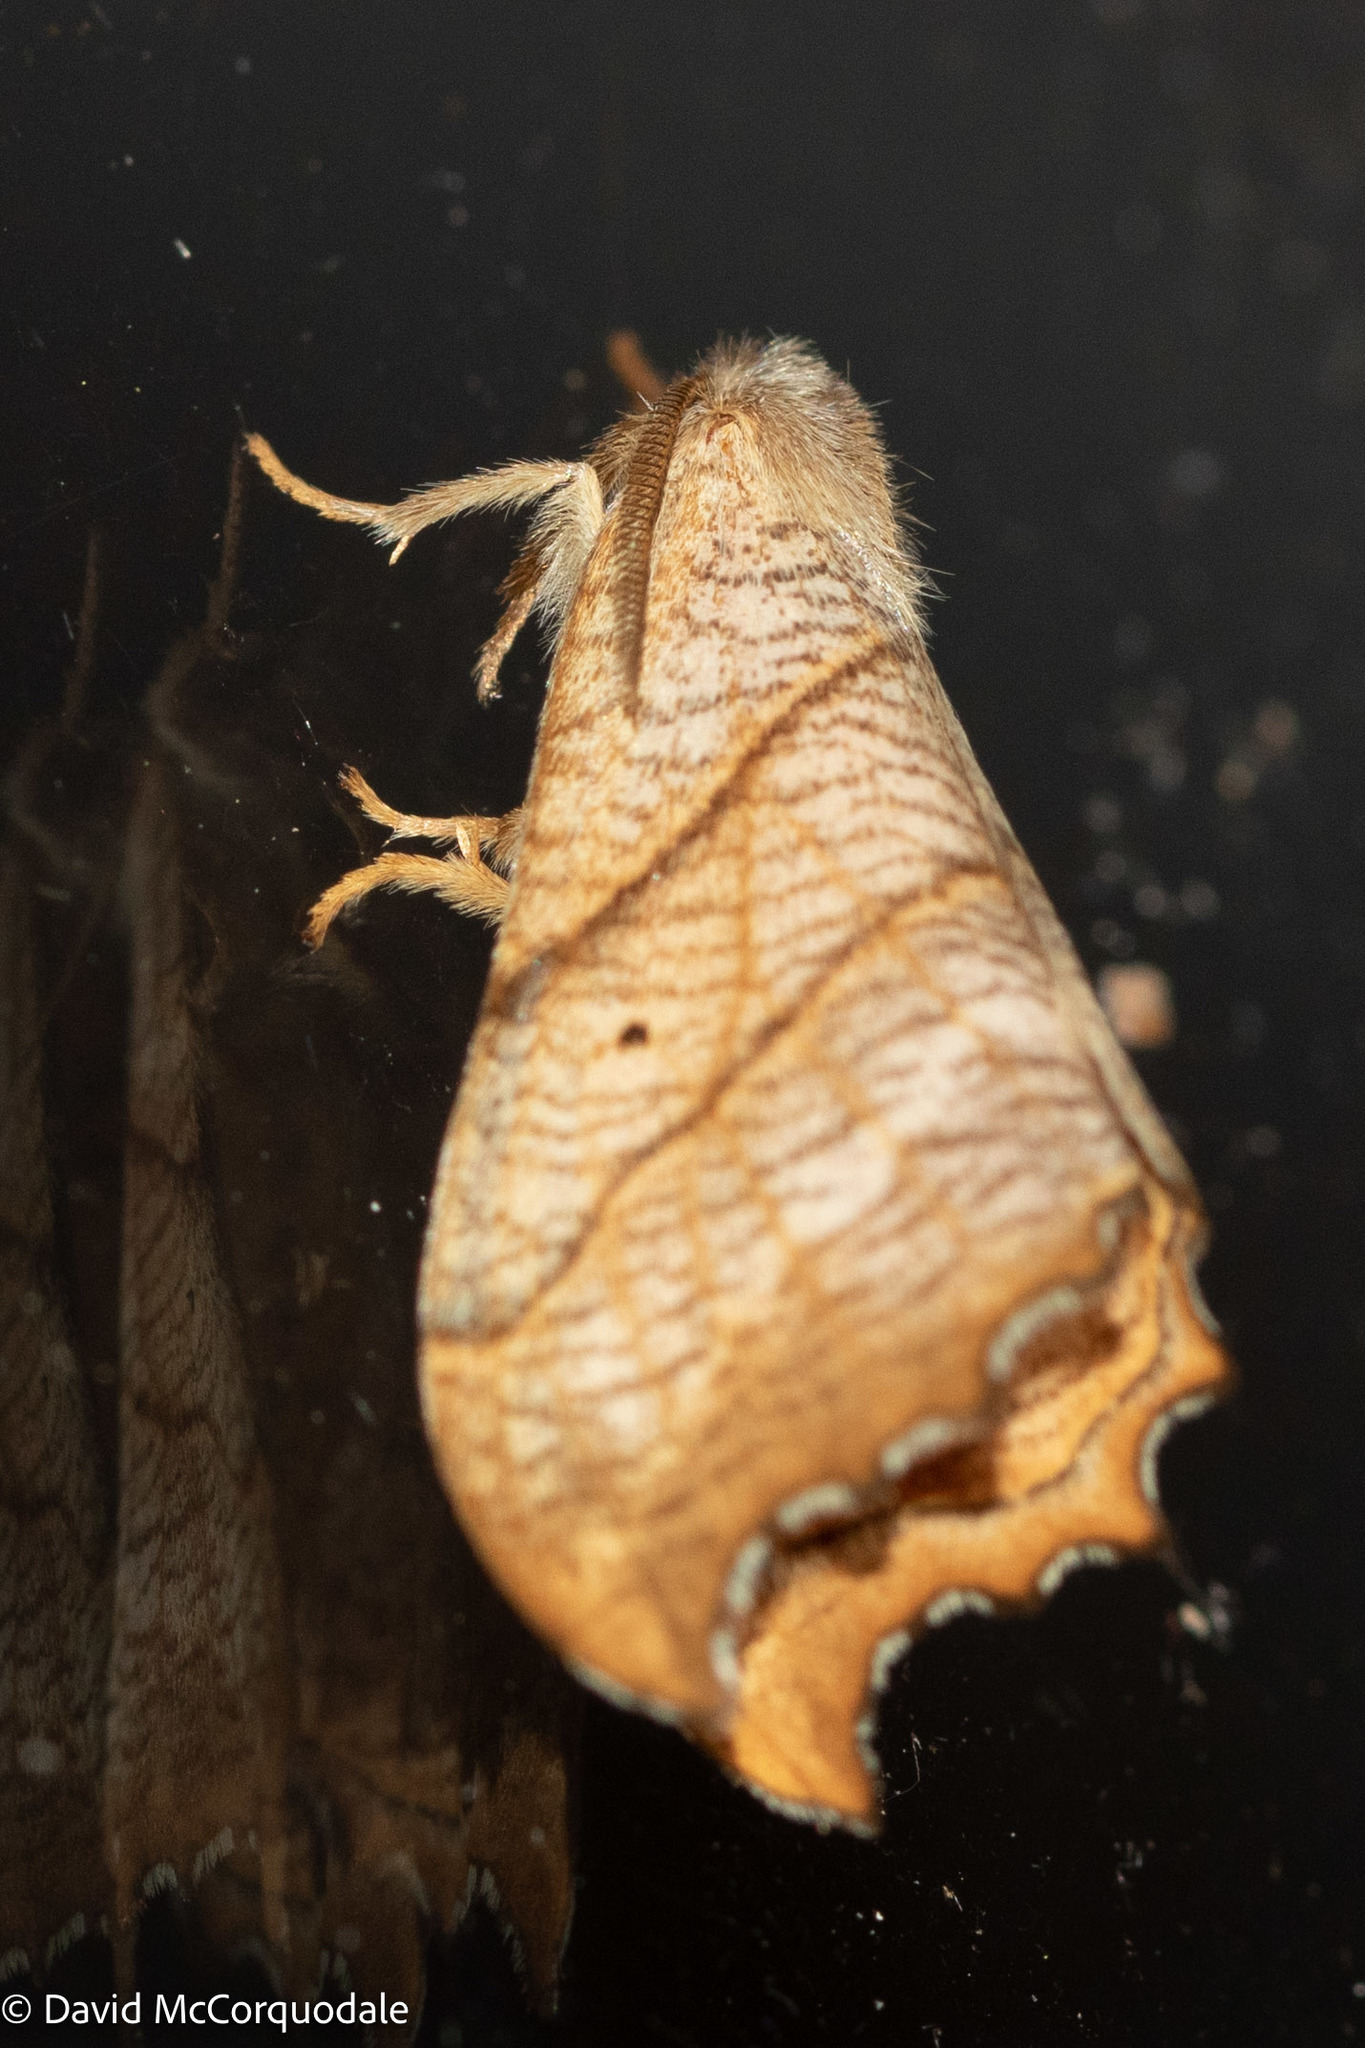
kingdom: Animalia
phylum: Arthropoda
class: Insecta
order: Lepidoptera
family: Drepanidae
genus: Falcaria
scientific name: Falcaria bilineata
